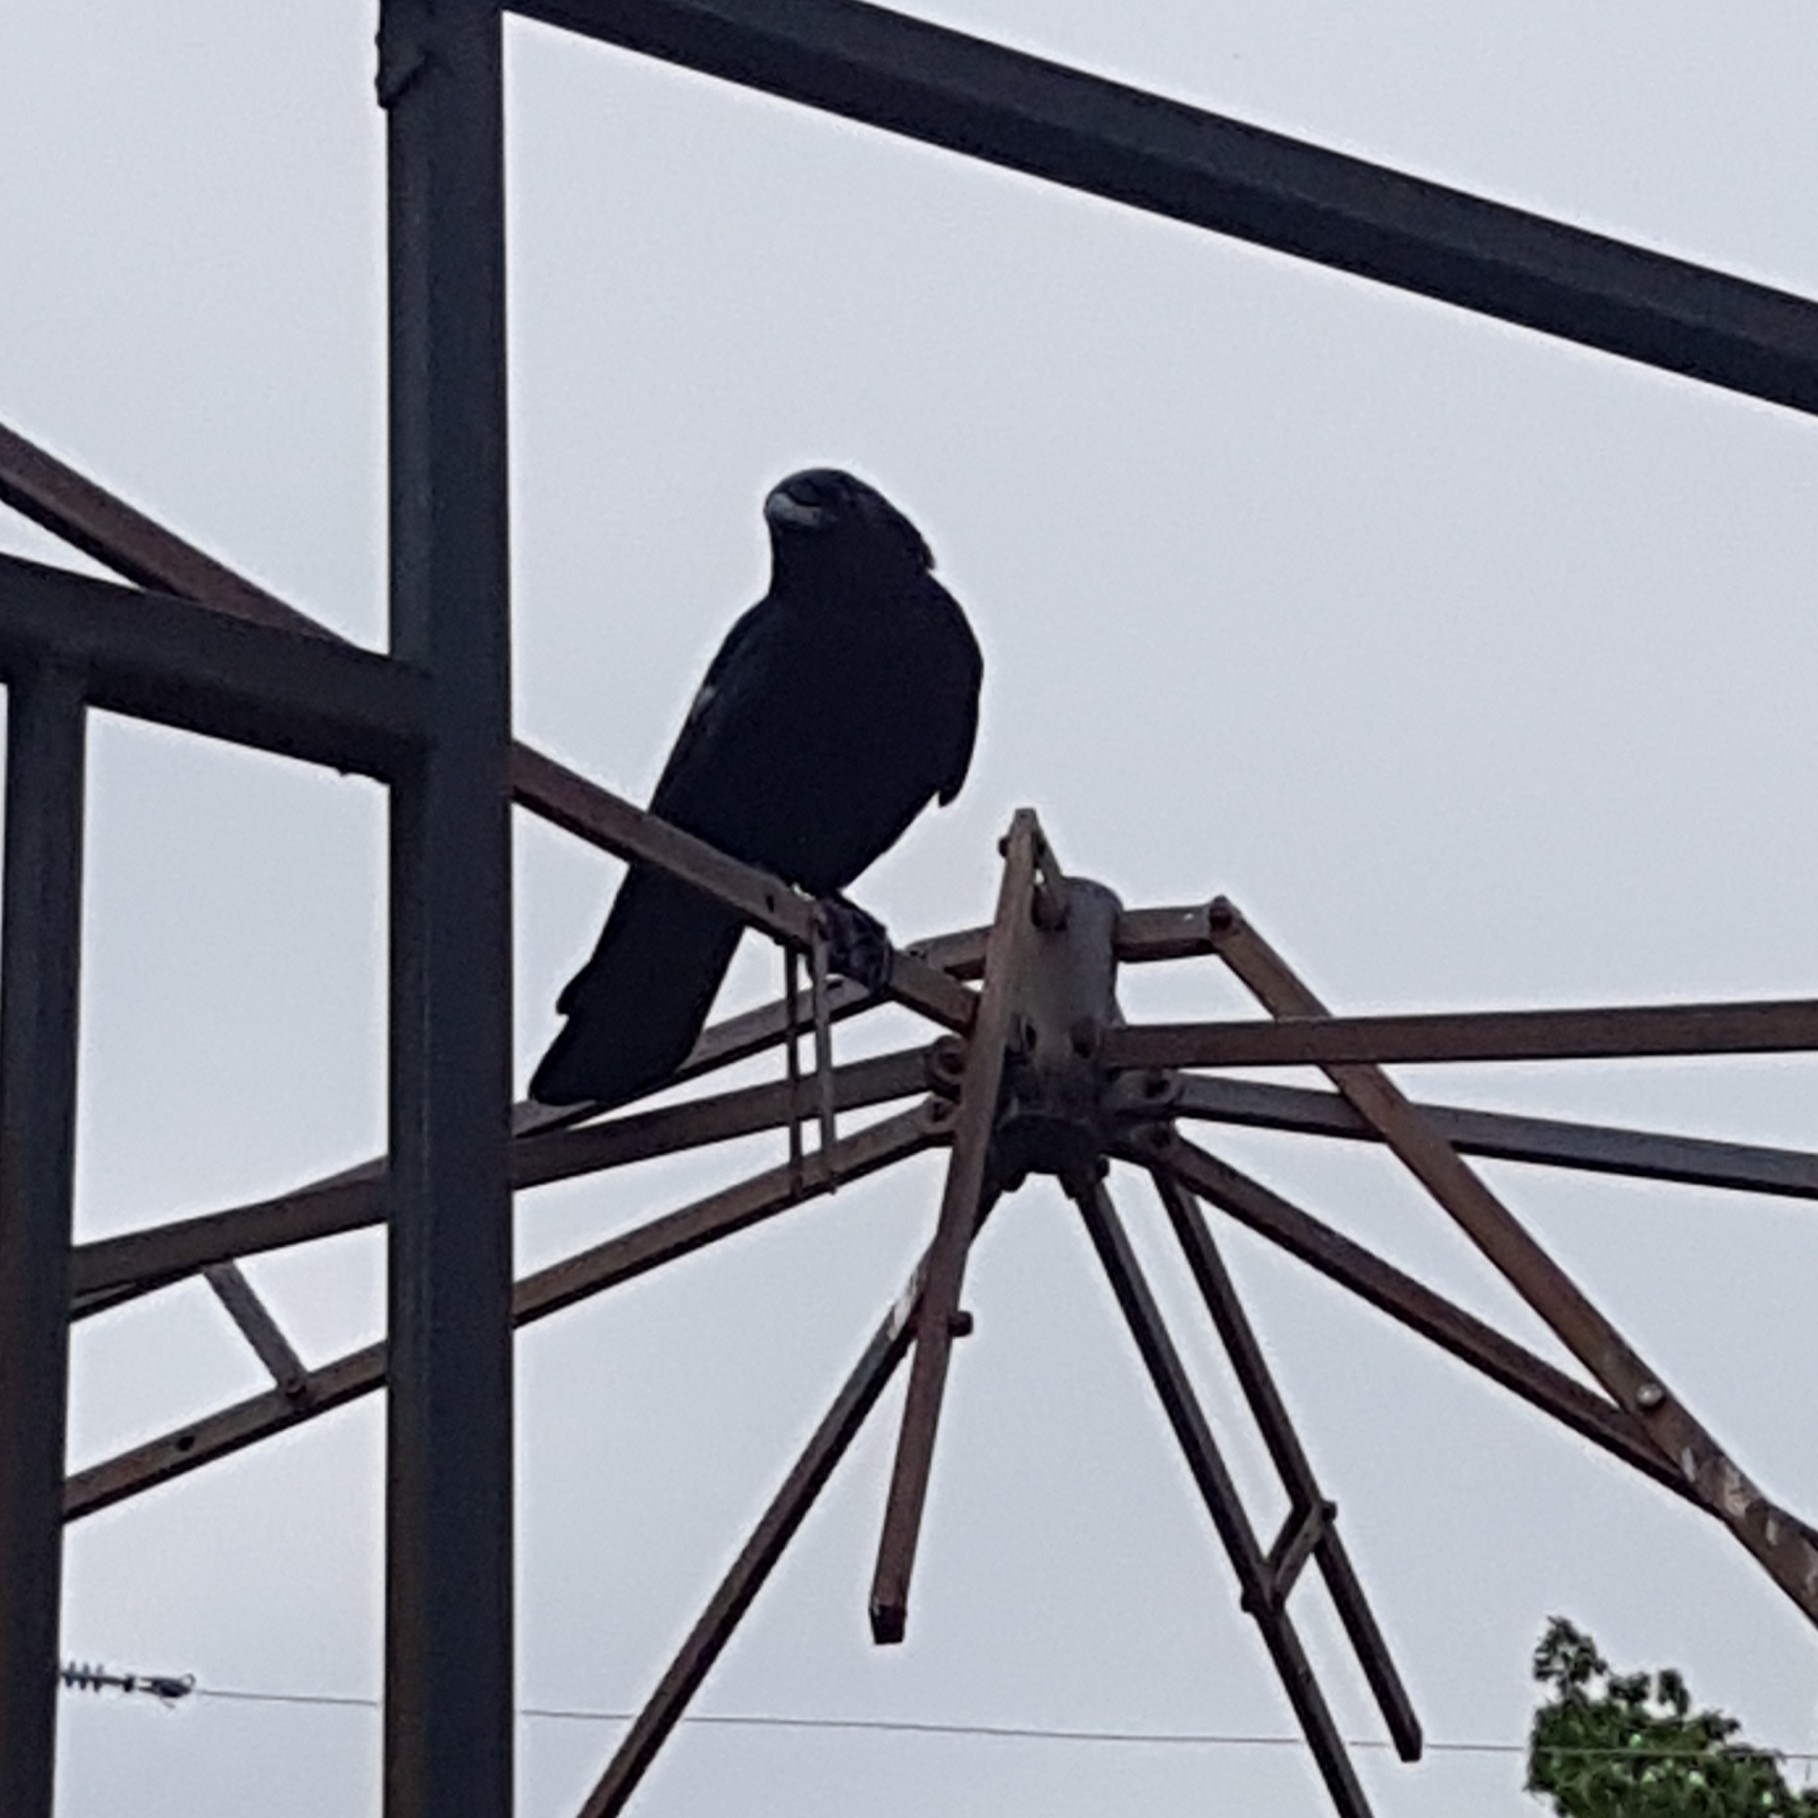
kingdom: Animalia
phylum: Chordata
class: Aves
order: Passeriformes
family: Corvidae
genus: Corvus
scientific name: Corvus brachyrhynchos
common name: American crow
